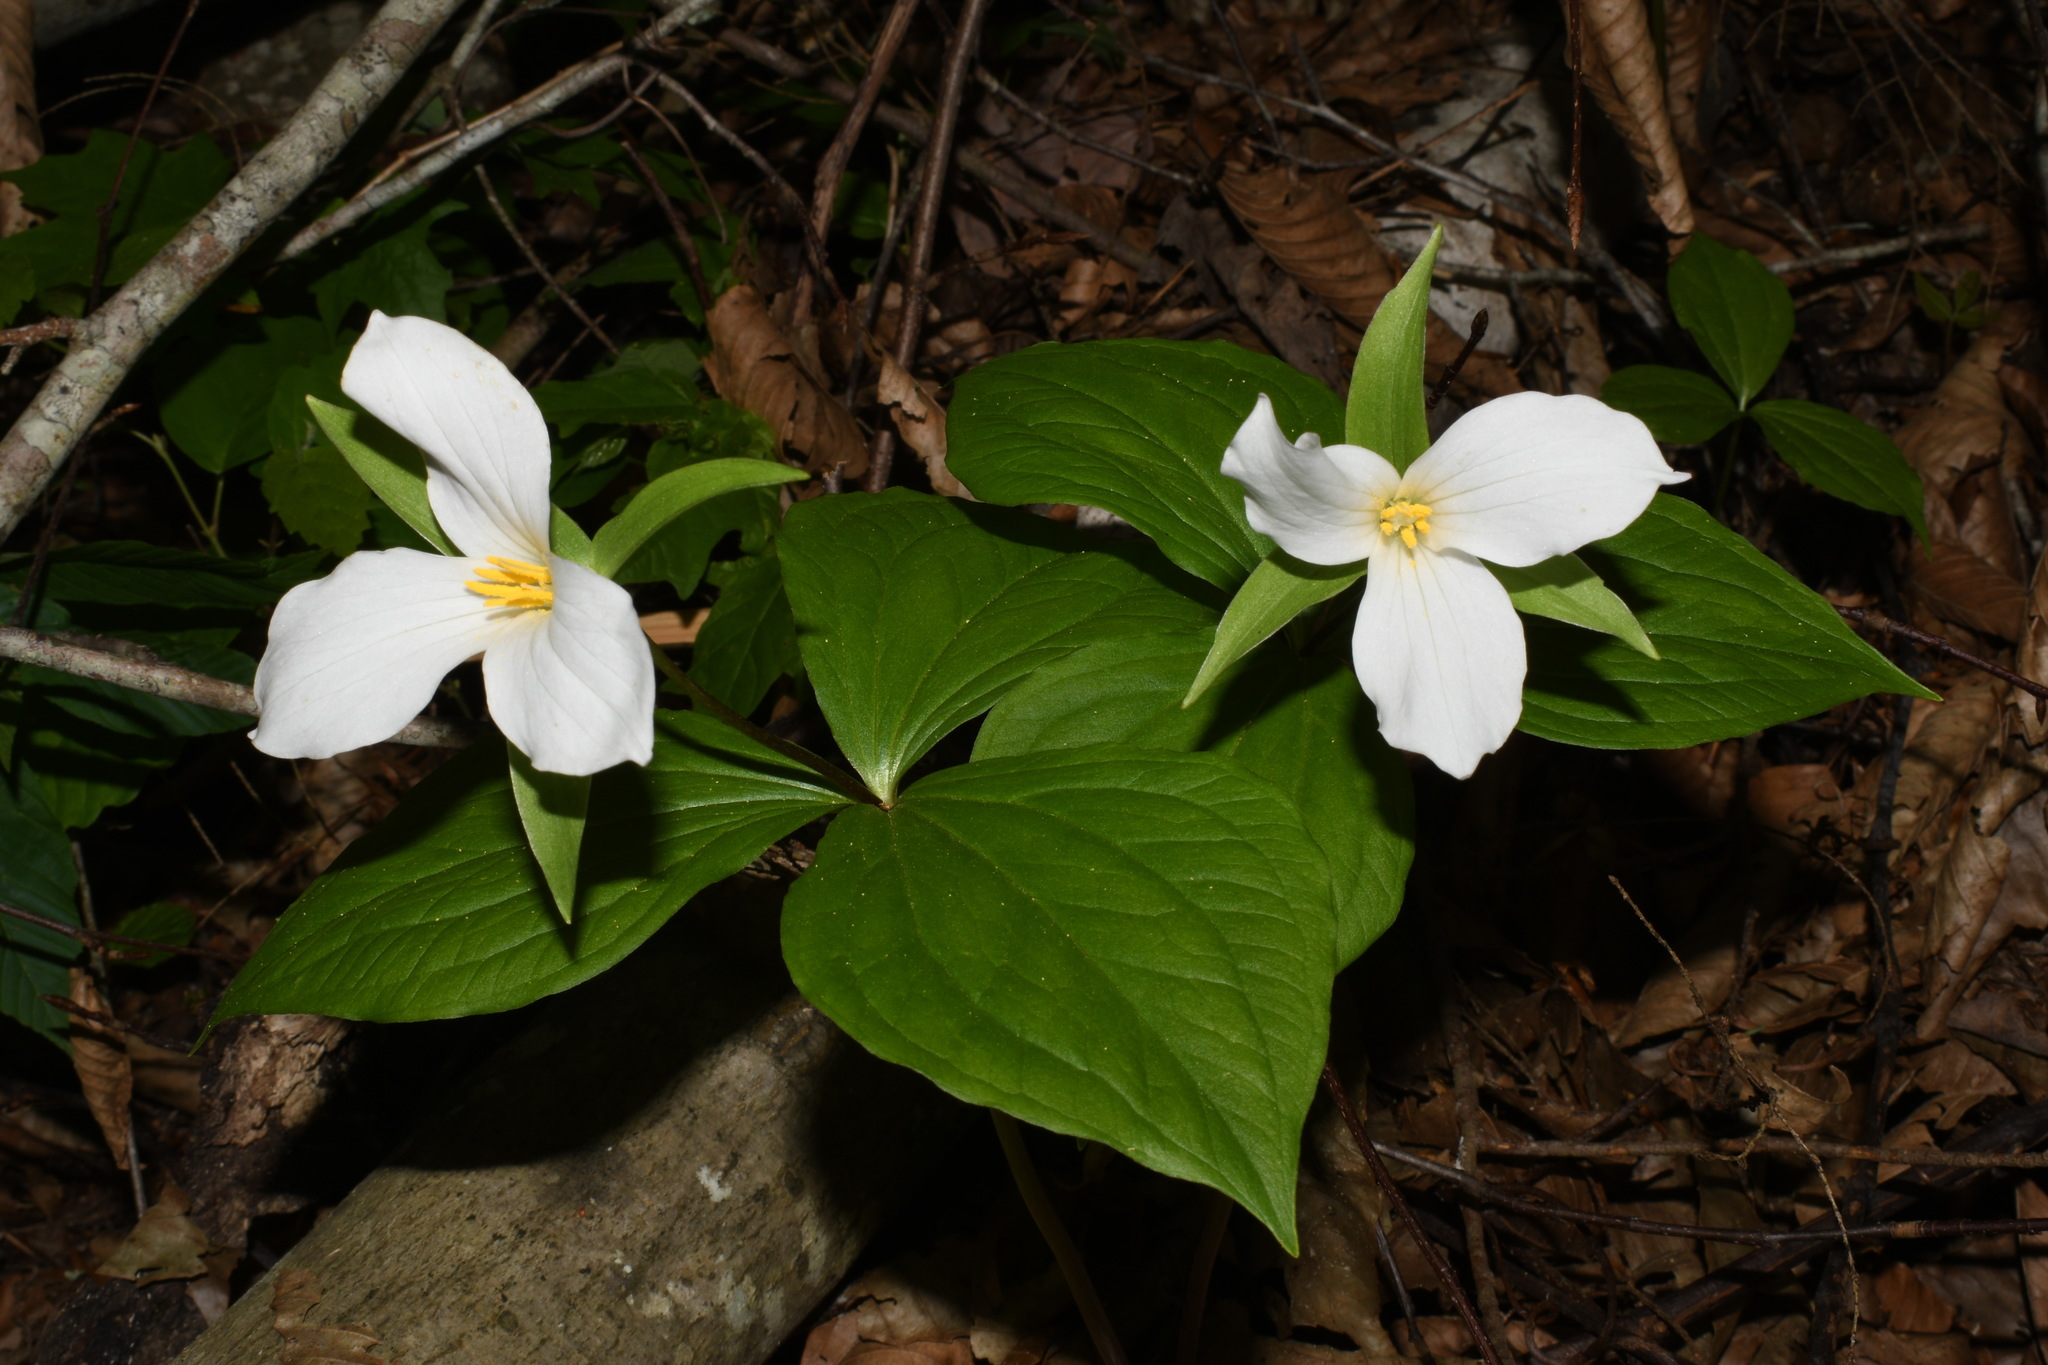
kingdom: Plantae
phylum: Tracheophyta
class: Liliopsida
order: Liliales
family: Melanthiaceae
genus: Trillium
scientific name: Trillium grandiflorum
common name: Great white trillium
